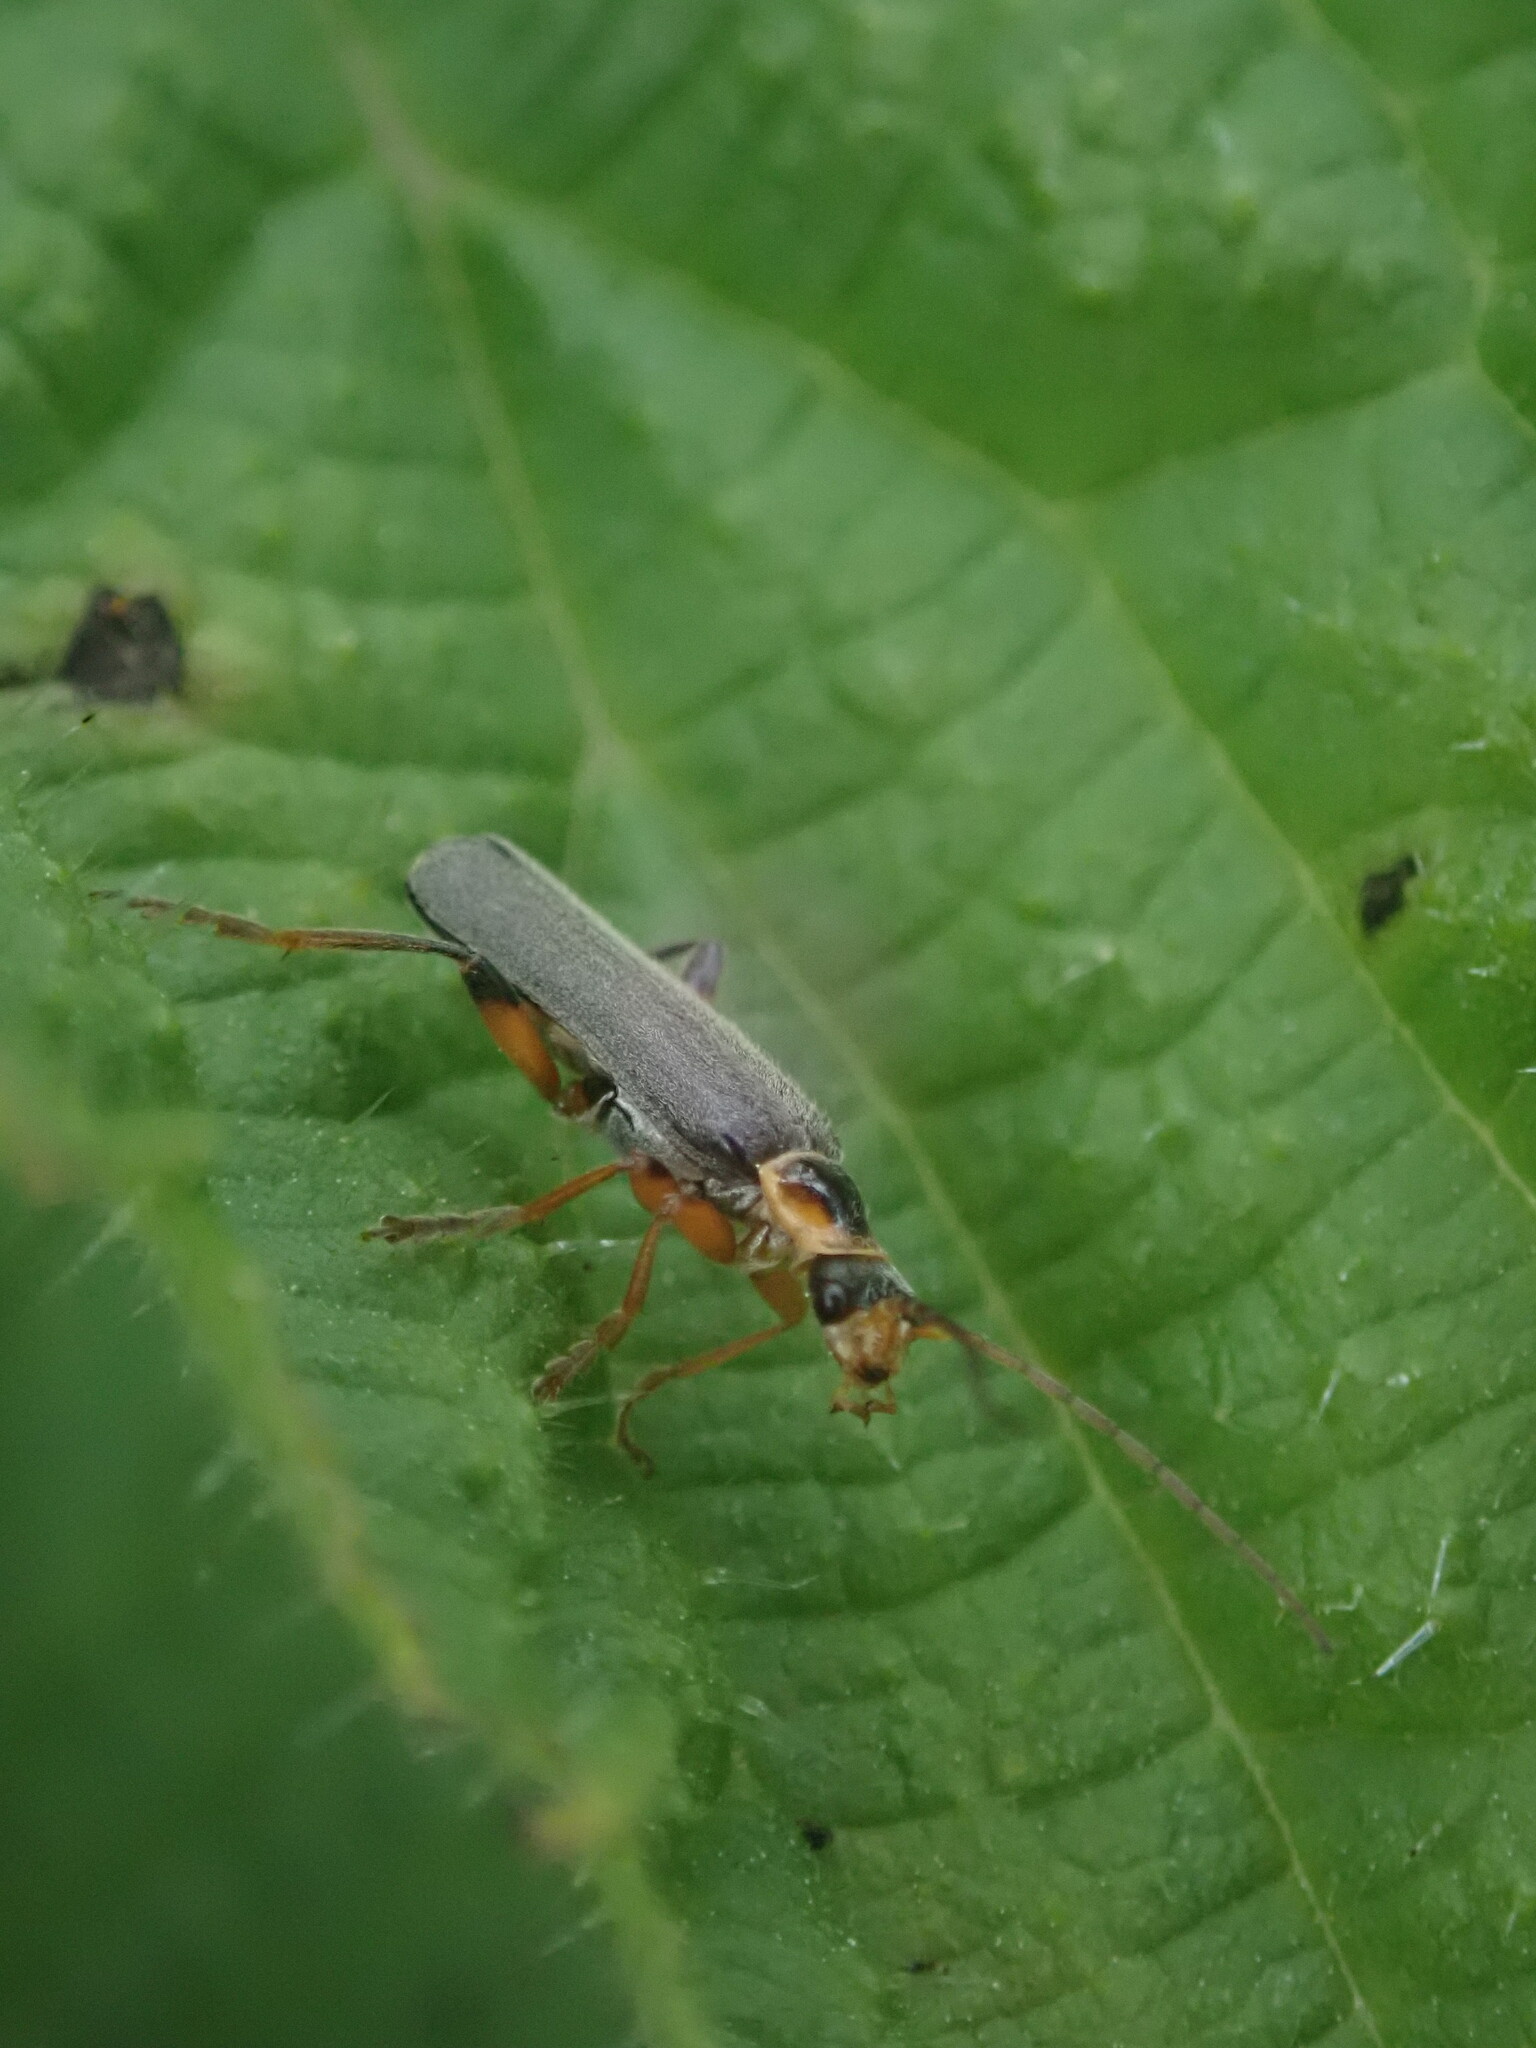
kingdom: Animalia
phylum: Arthropoda
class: Insecta
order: Coleoptera
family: Cantharidae
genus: Cantharis
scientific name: Cantharis nigricans
